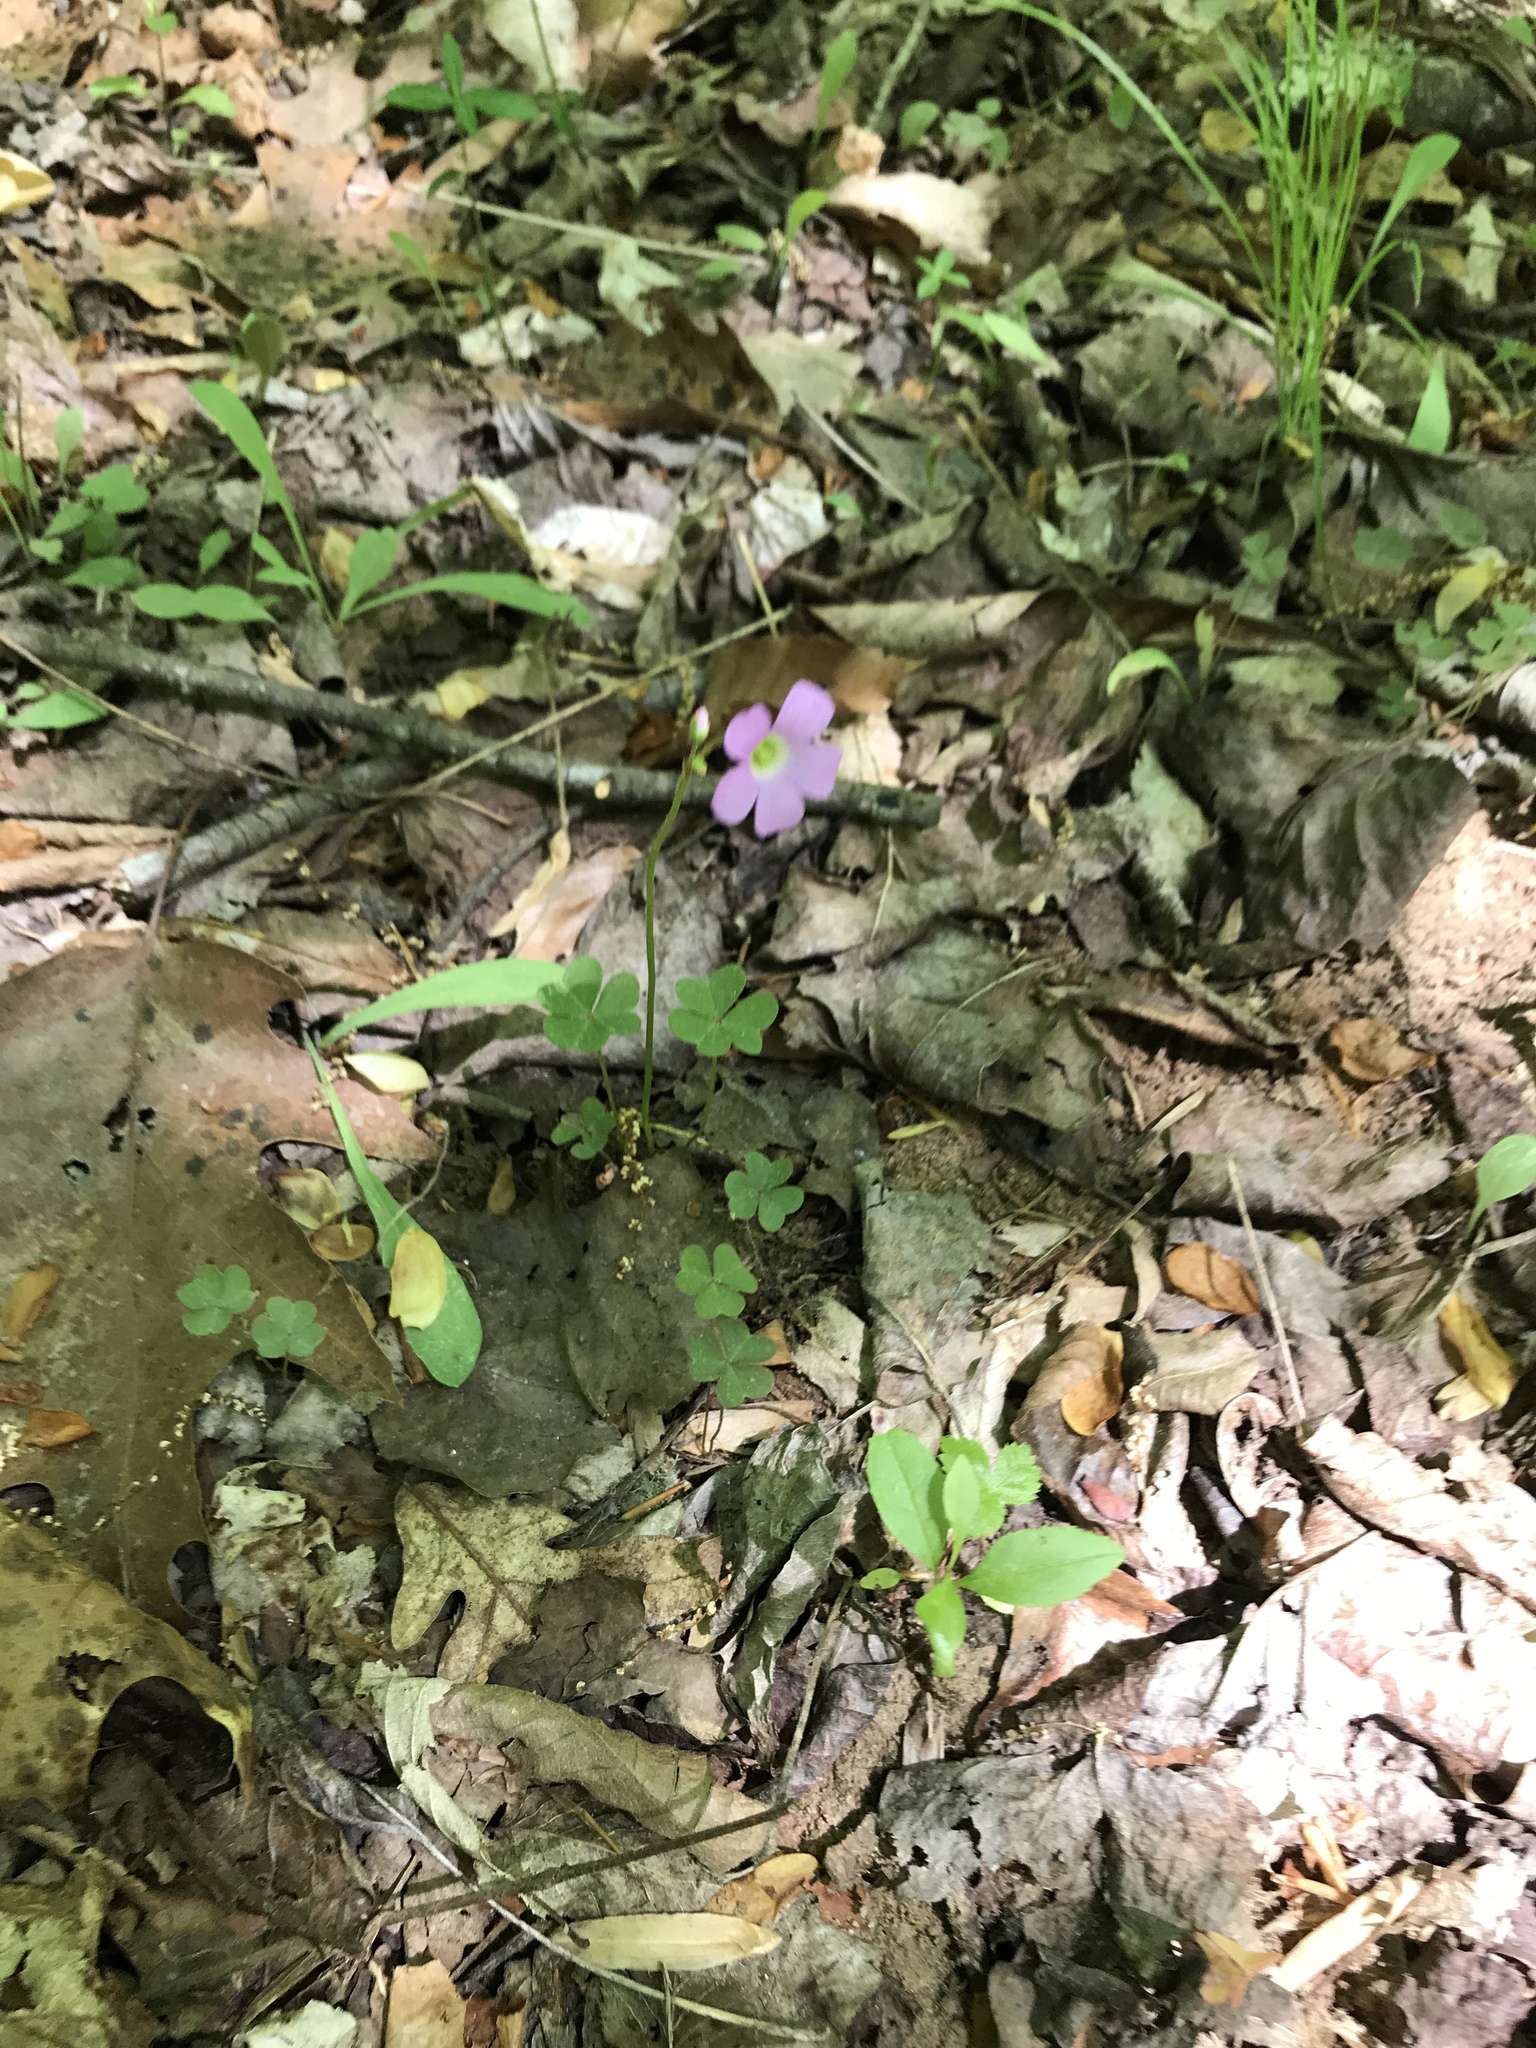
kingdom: Plantae
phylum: Tracheophyta
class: Magnoliopsida
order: Oxalidales
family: Oxalidaceae
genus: Oxalis
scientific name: Oxalis violacea
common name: Violet wood-sorrel
